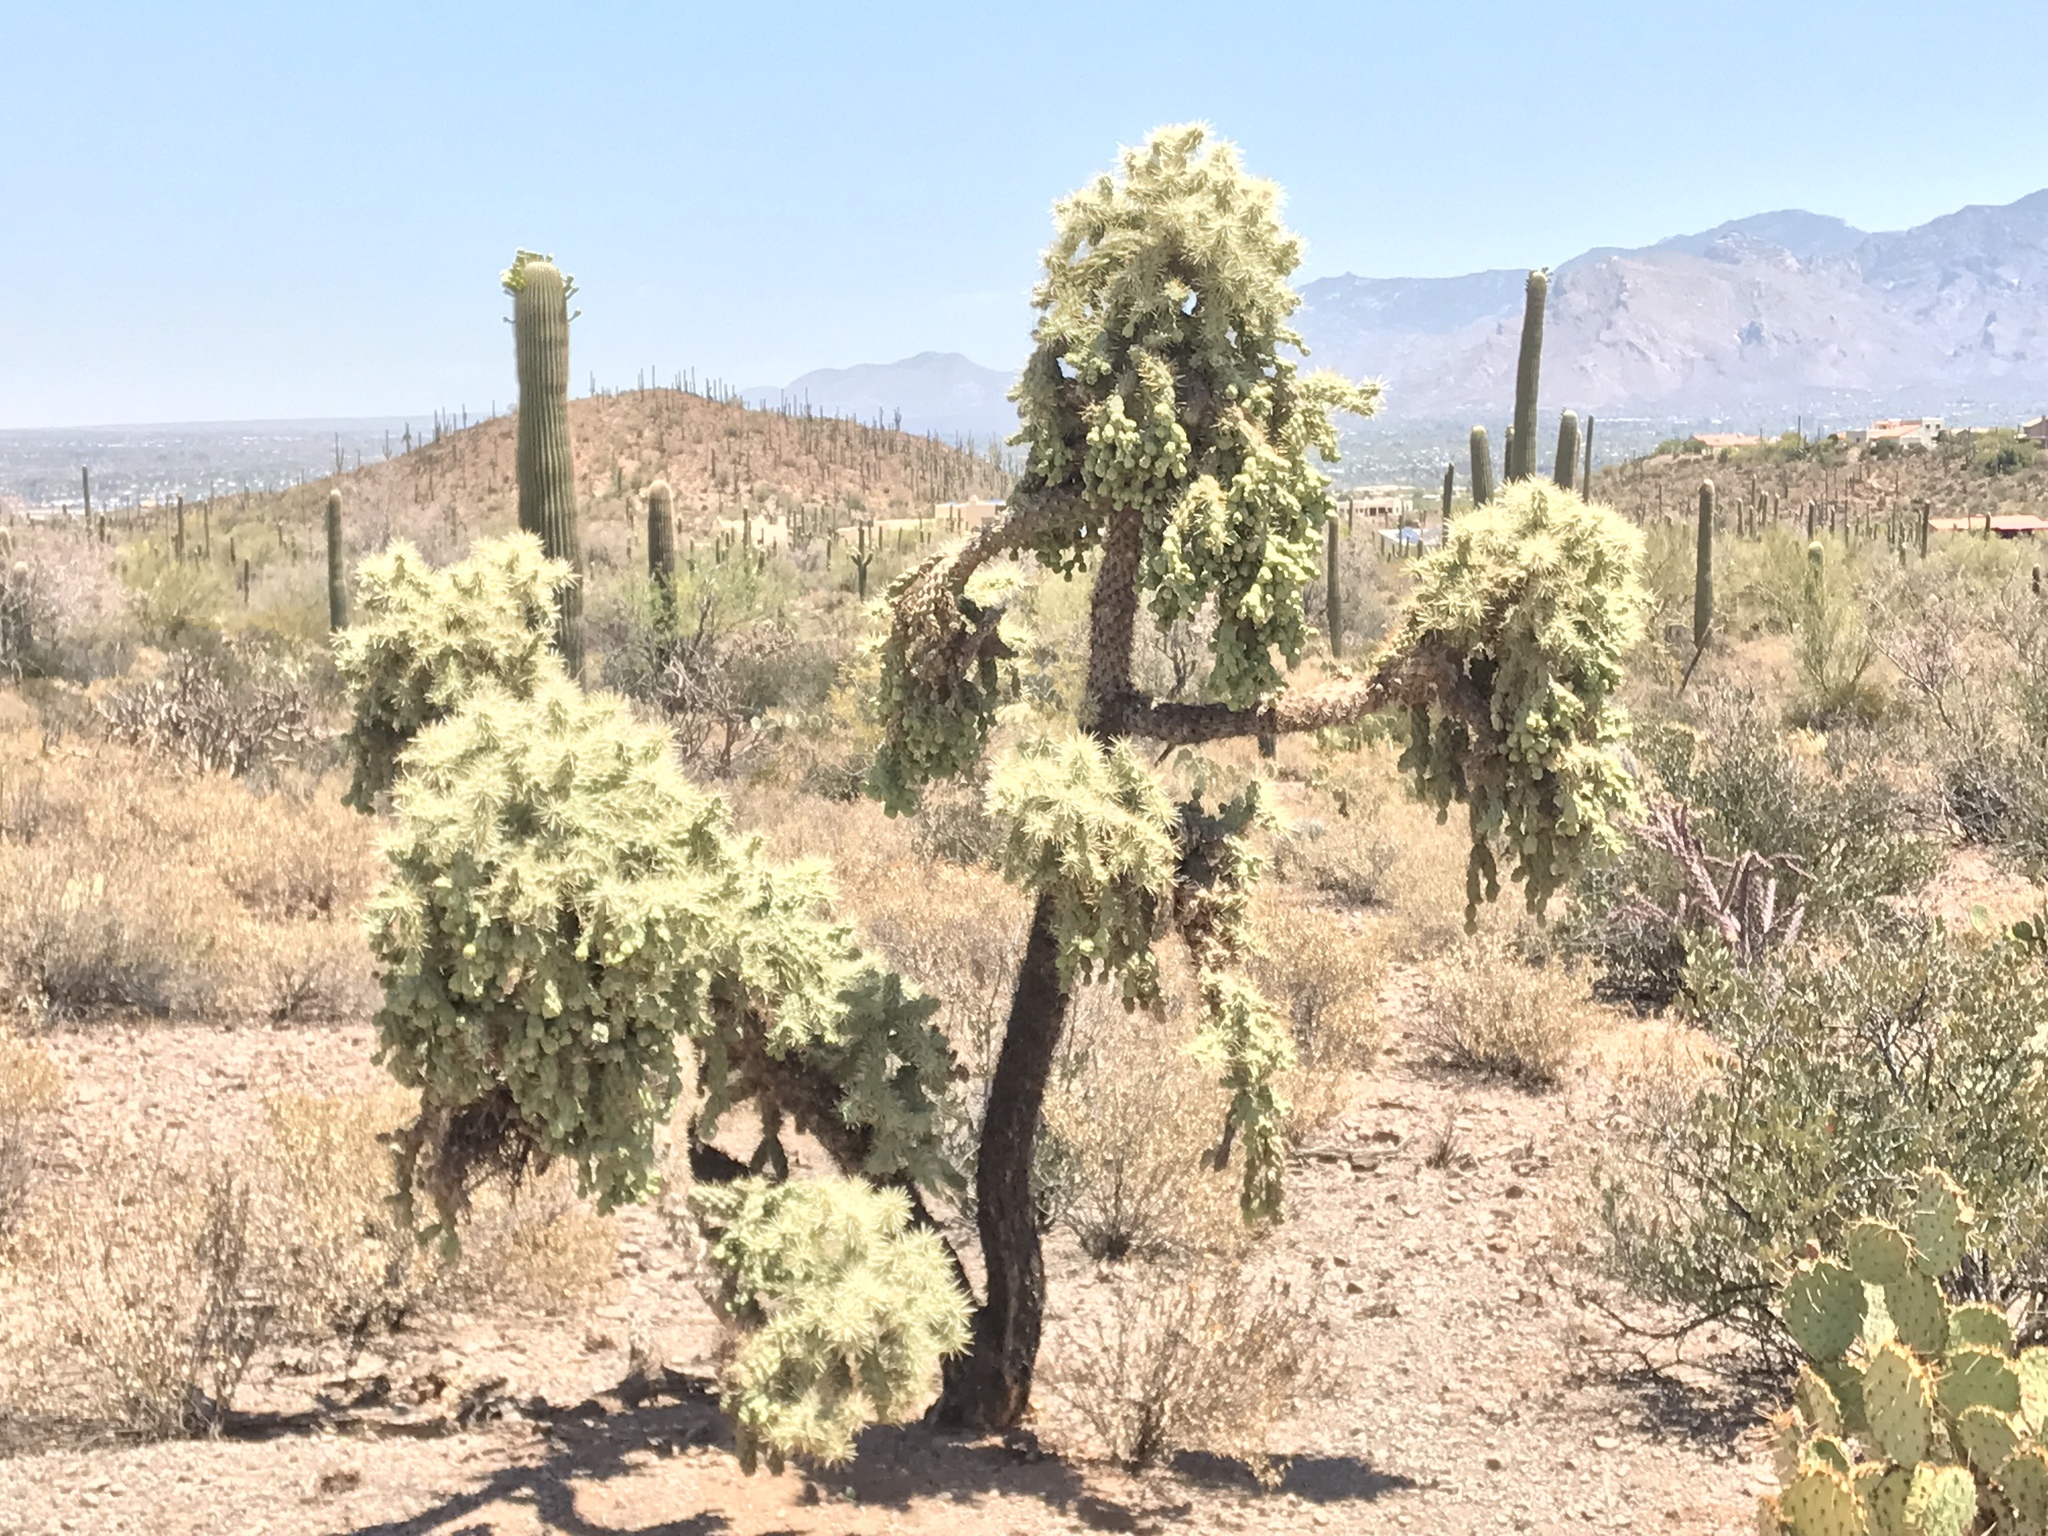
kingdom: Plantae
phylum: Tracheophyta
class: Magnoliopsida
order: Caryophyllales
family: Cactaceae
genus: Cylindropuntia
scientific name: Cylindropuntia fulgida
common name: Jumping cholla
